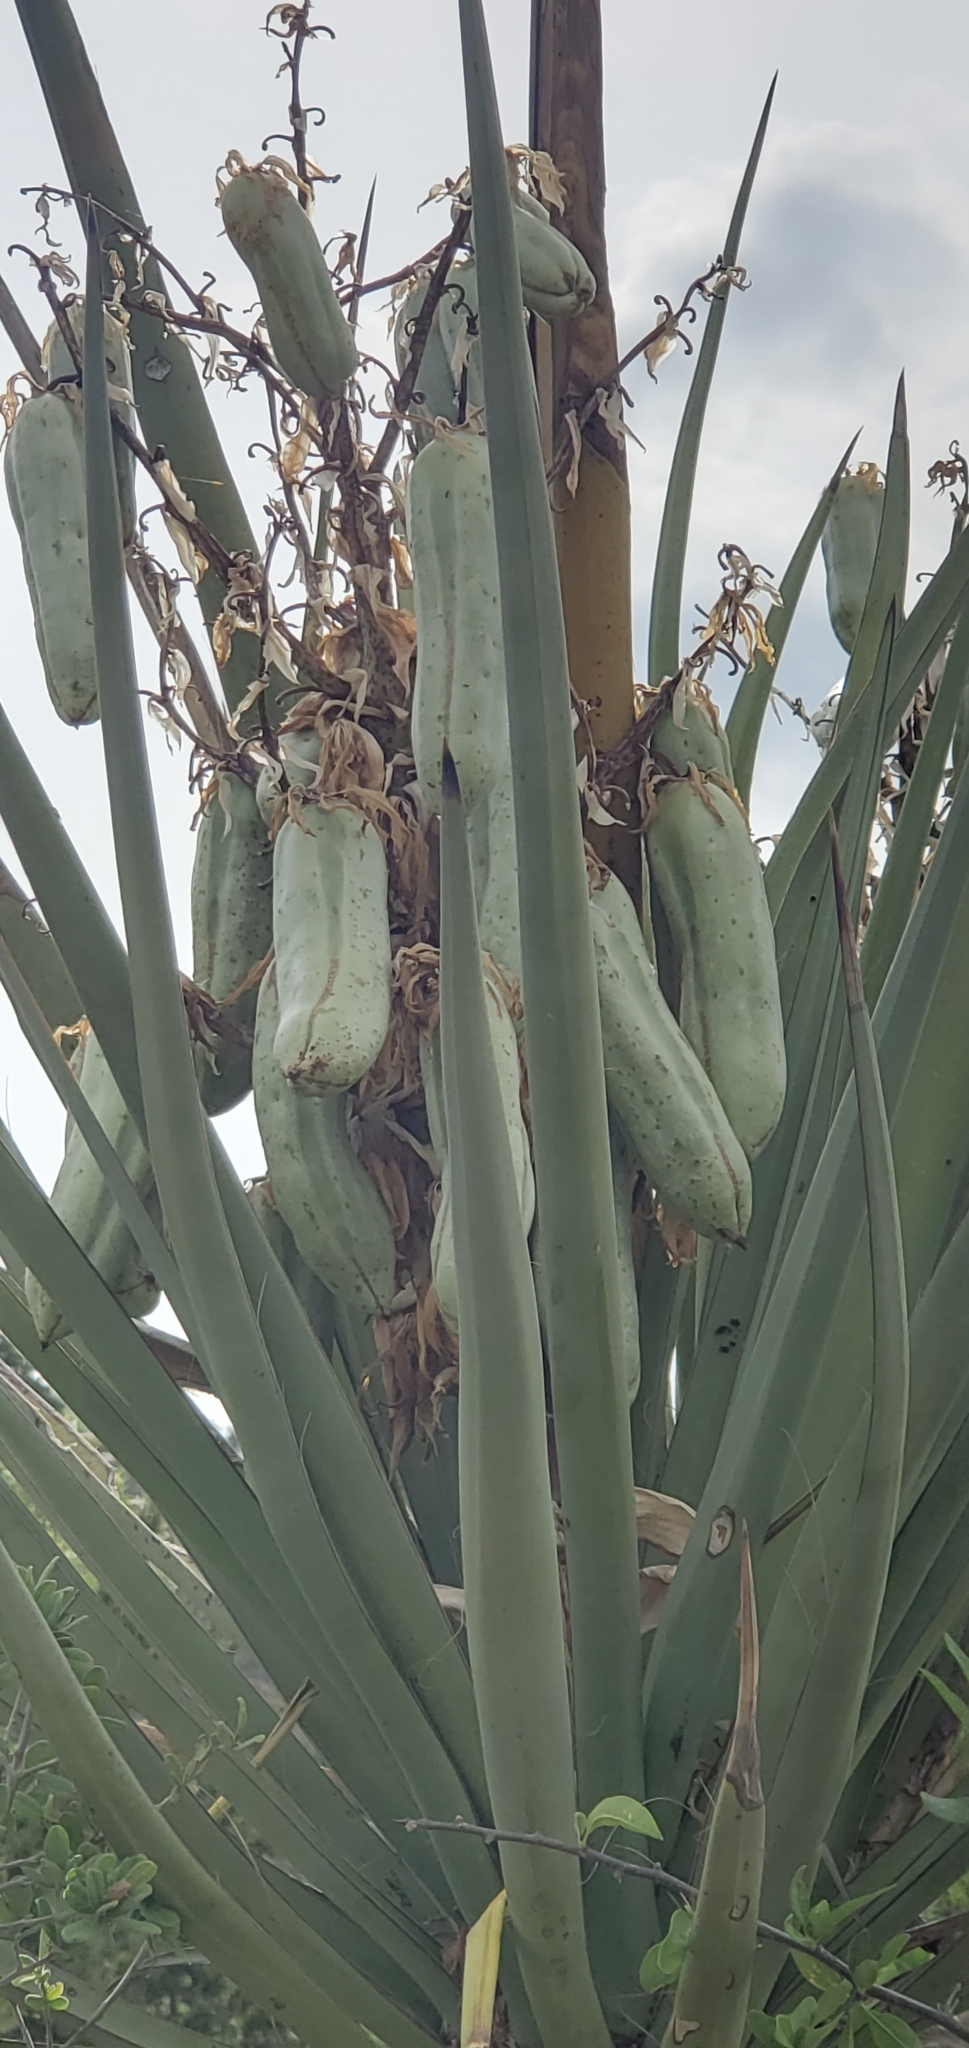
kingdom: Plantae
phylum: Tracheophyta
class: Liliopsida
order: Asparagales
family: Asparagaceae
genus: Yucca
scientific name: Yucca treculiana
